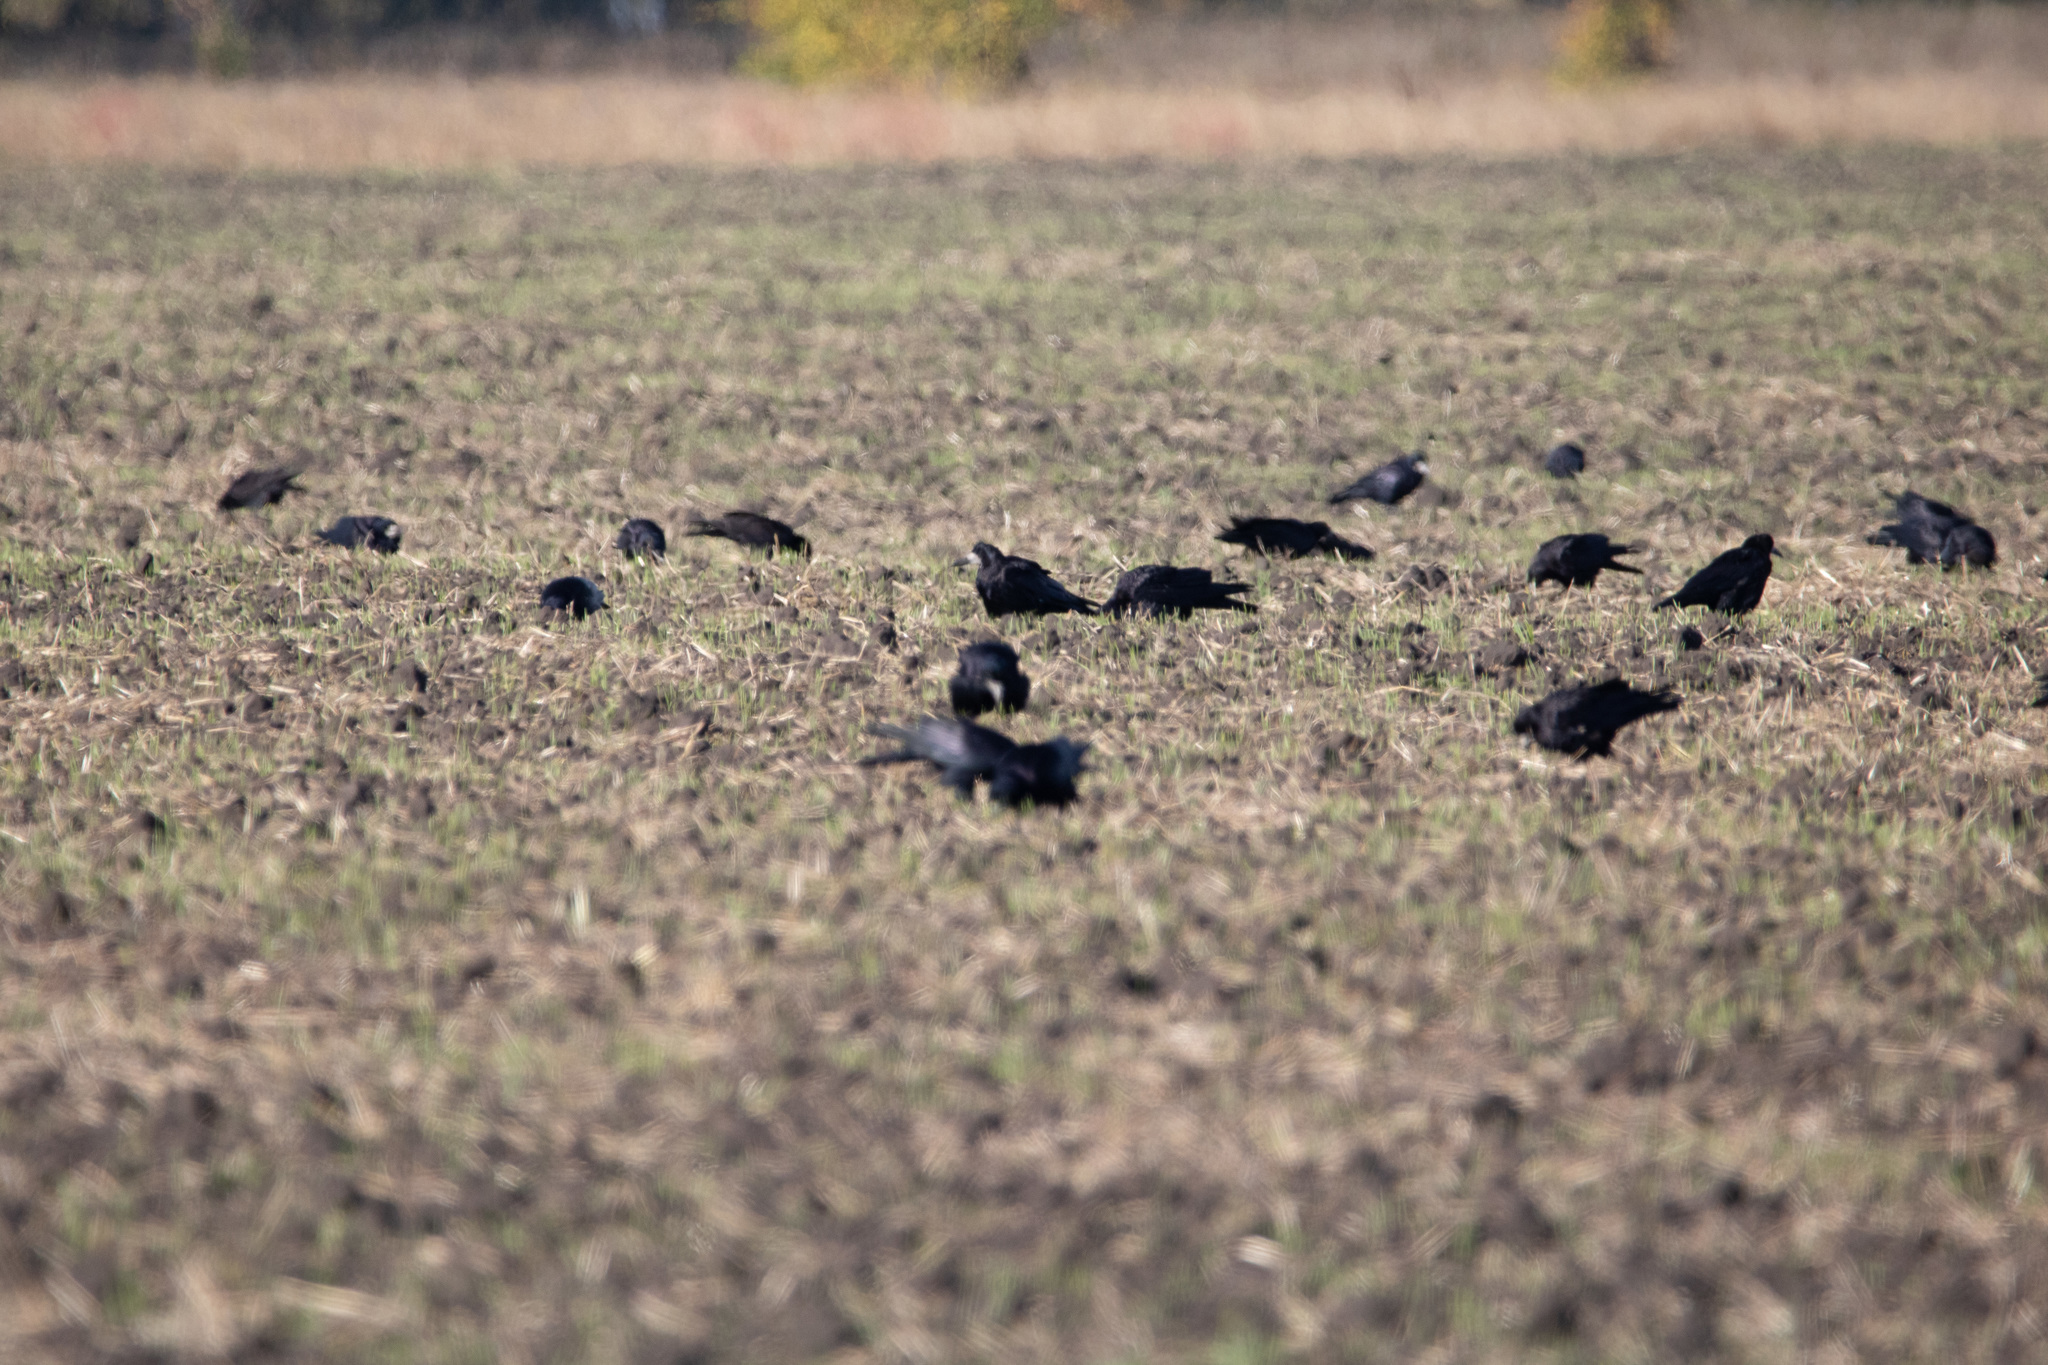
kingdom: Animalia
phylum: Chordata
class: Aves
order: Passeriformes
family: Corvidae
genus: Corvus
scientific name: Corvus frugilegus
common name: Rook
